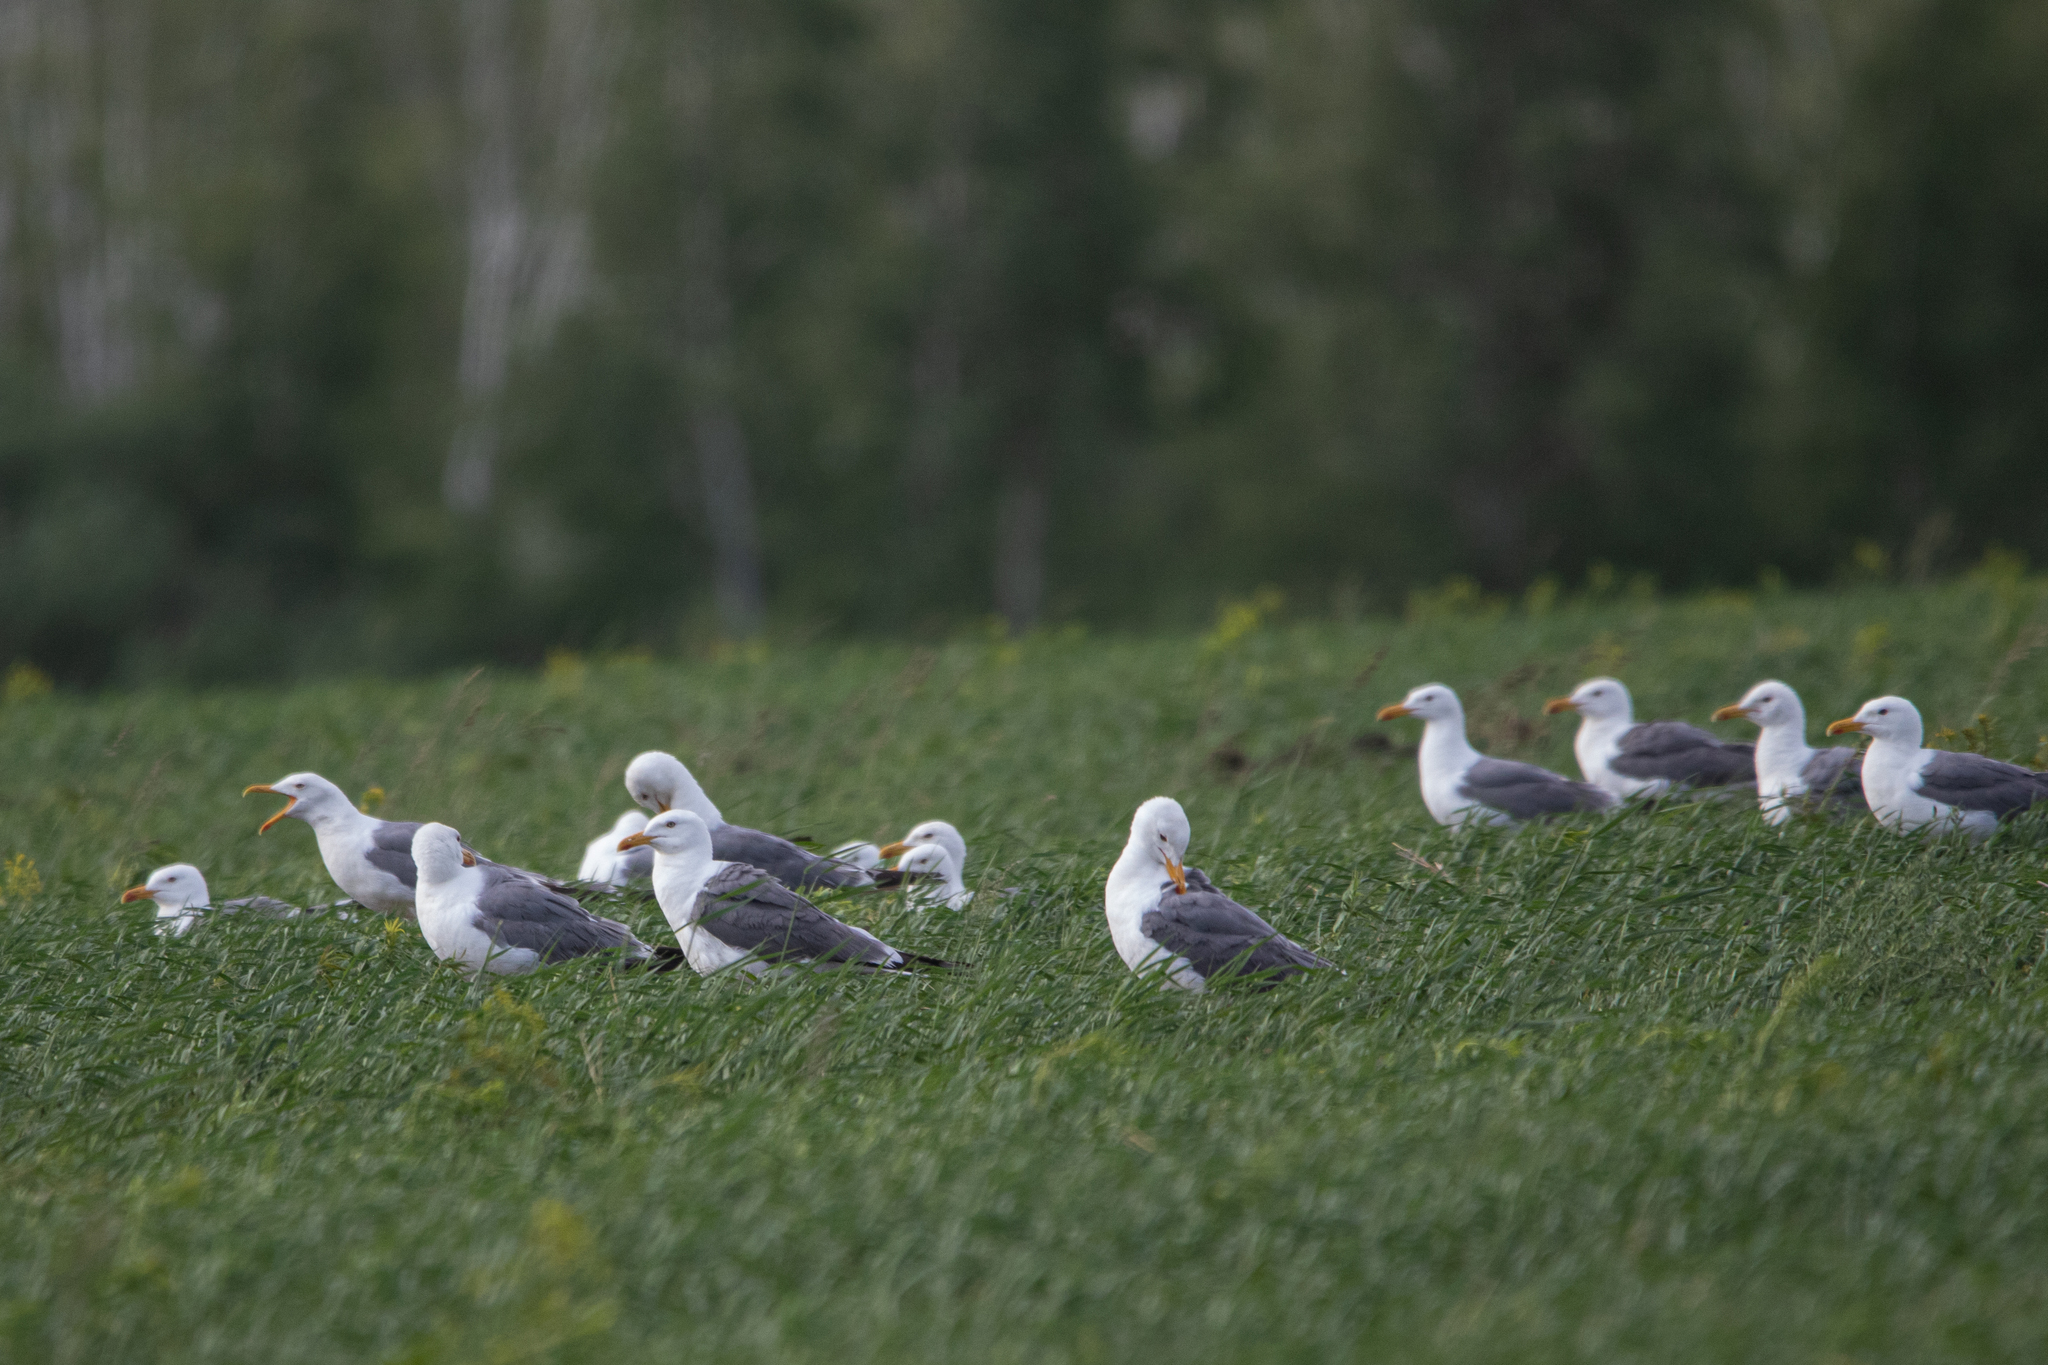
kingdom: Animalia
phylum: Chordata
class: Aves
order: Charadriiformes
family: Laridae
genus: Larus
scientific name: Larus fuscus
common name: Lesser black-backed gull
